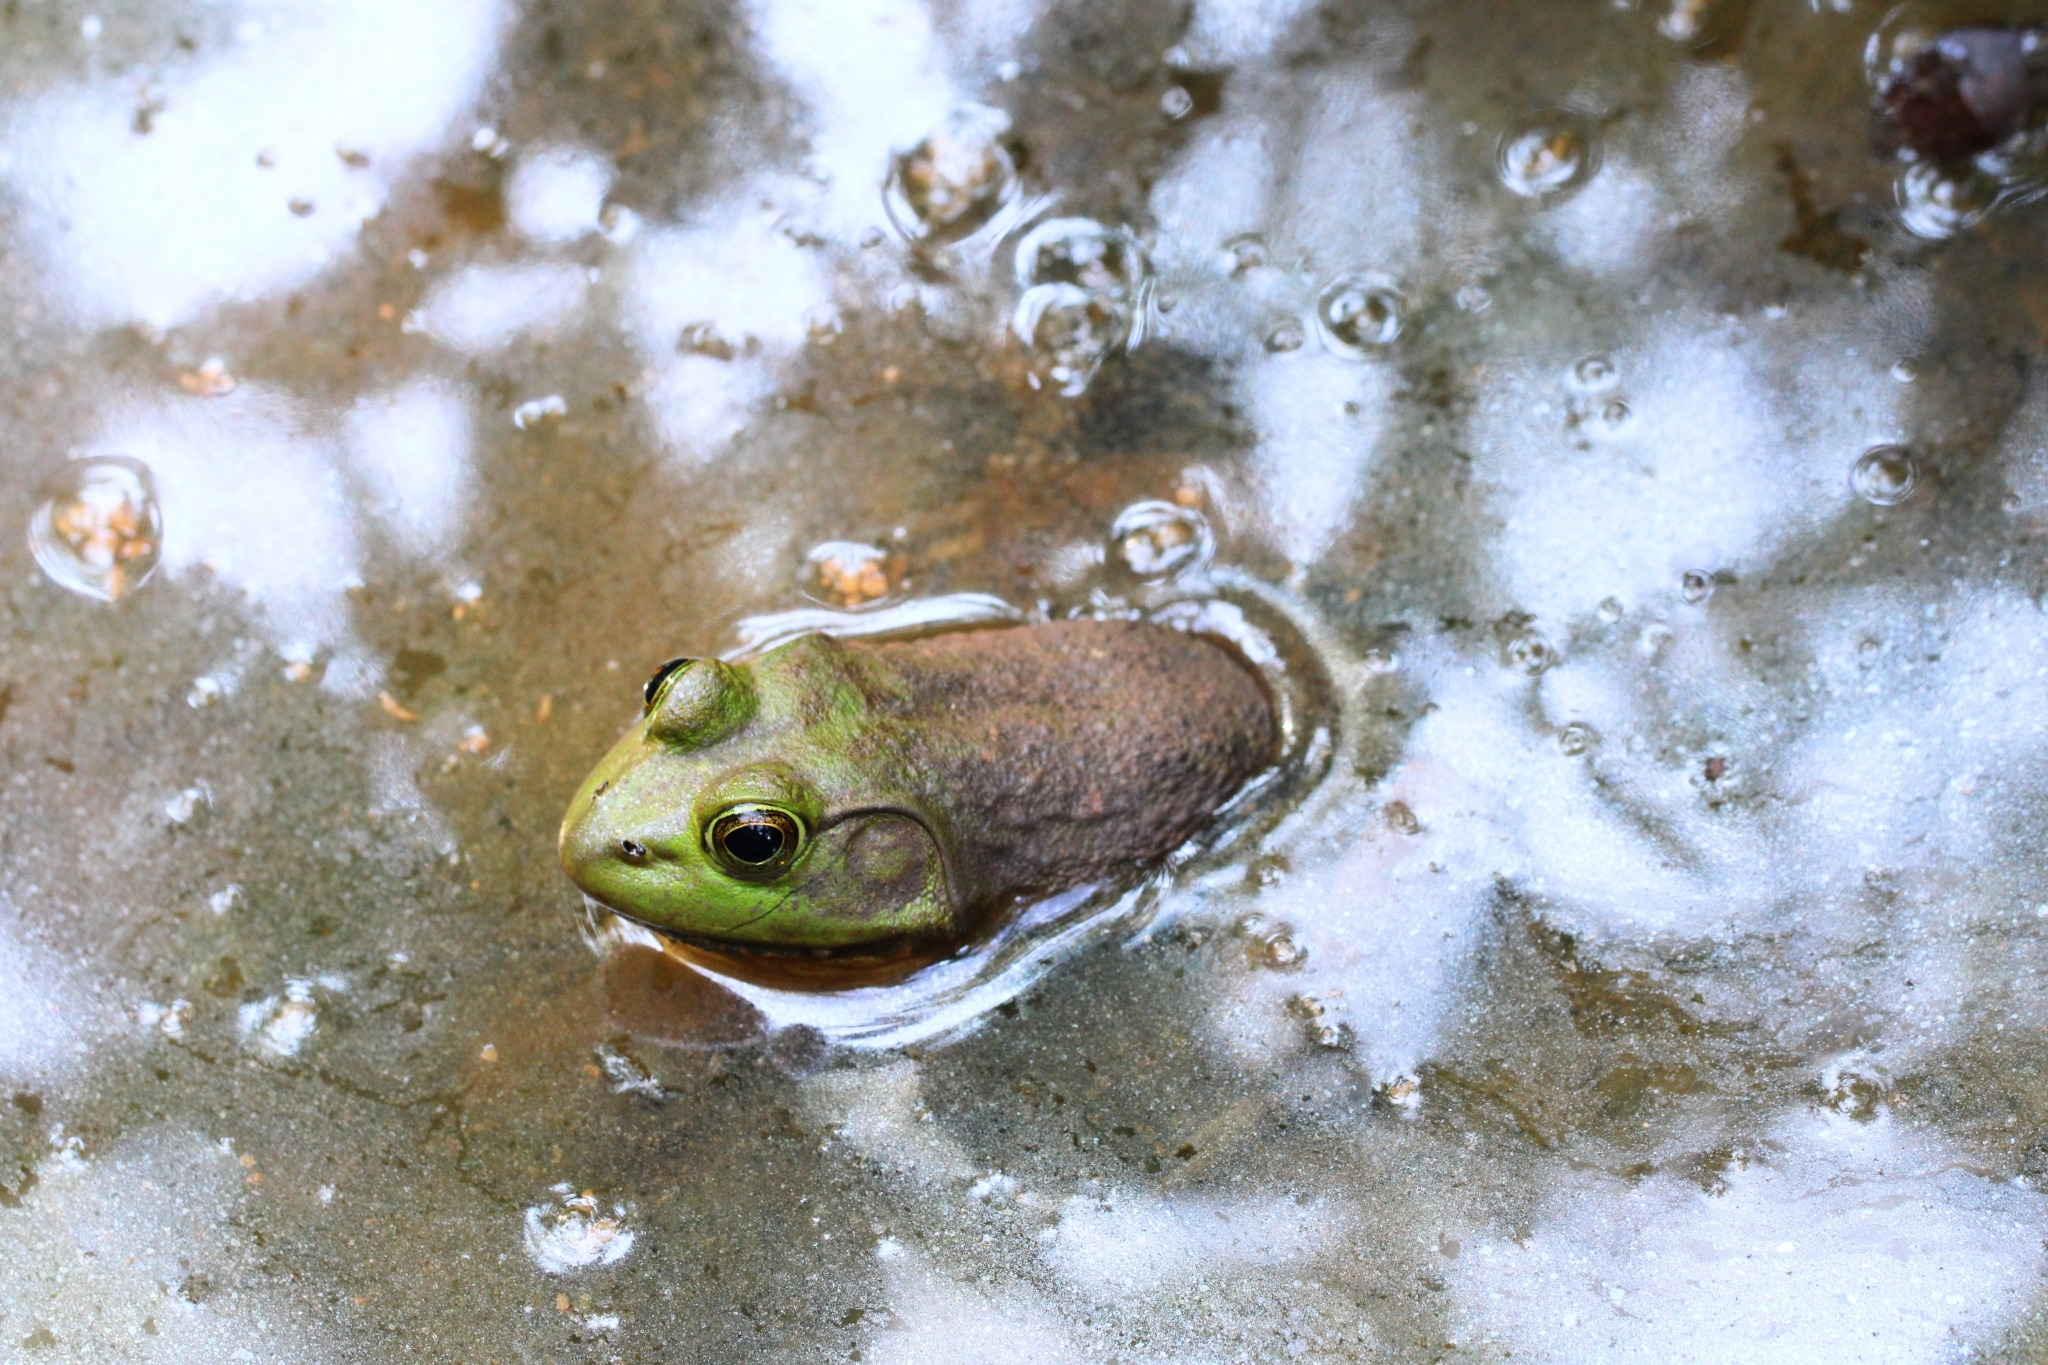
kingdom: Animalia
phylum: Chordata
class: Amphibia
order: Anura
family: Ranidae
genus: Lithobates
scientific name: Lithobates catesbeianus
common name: American bullfrog
